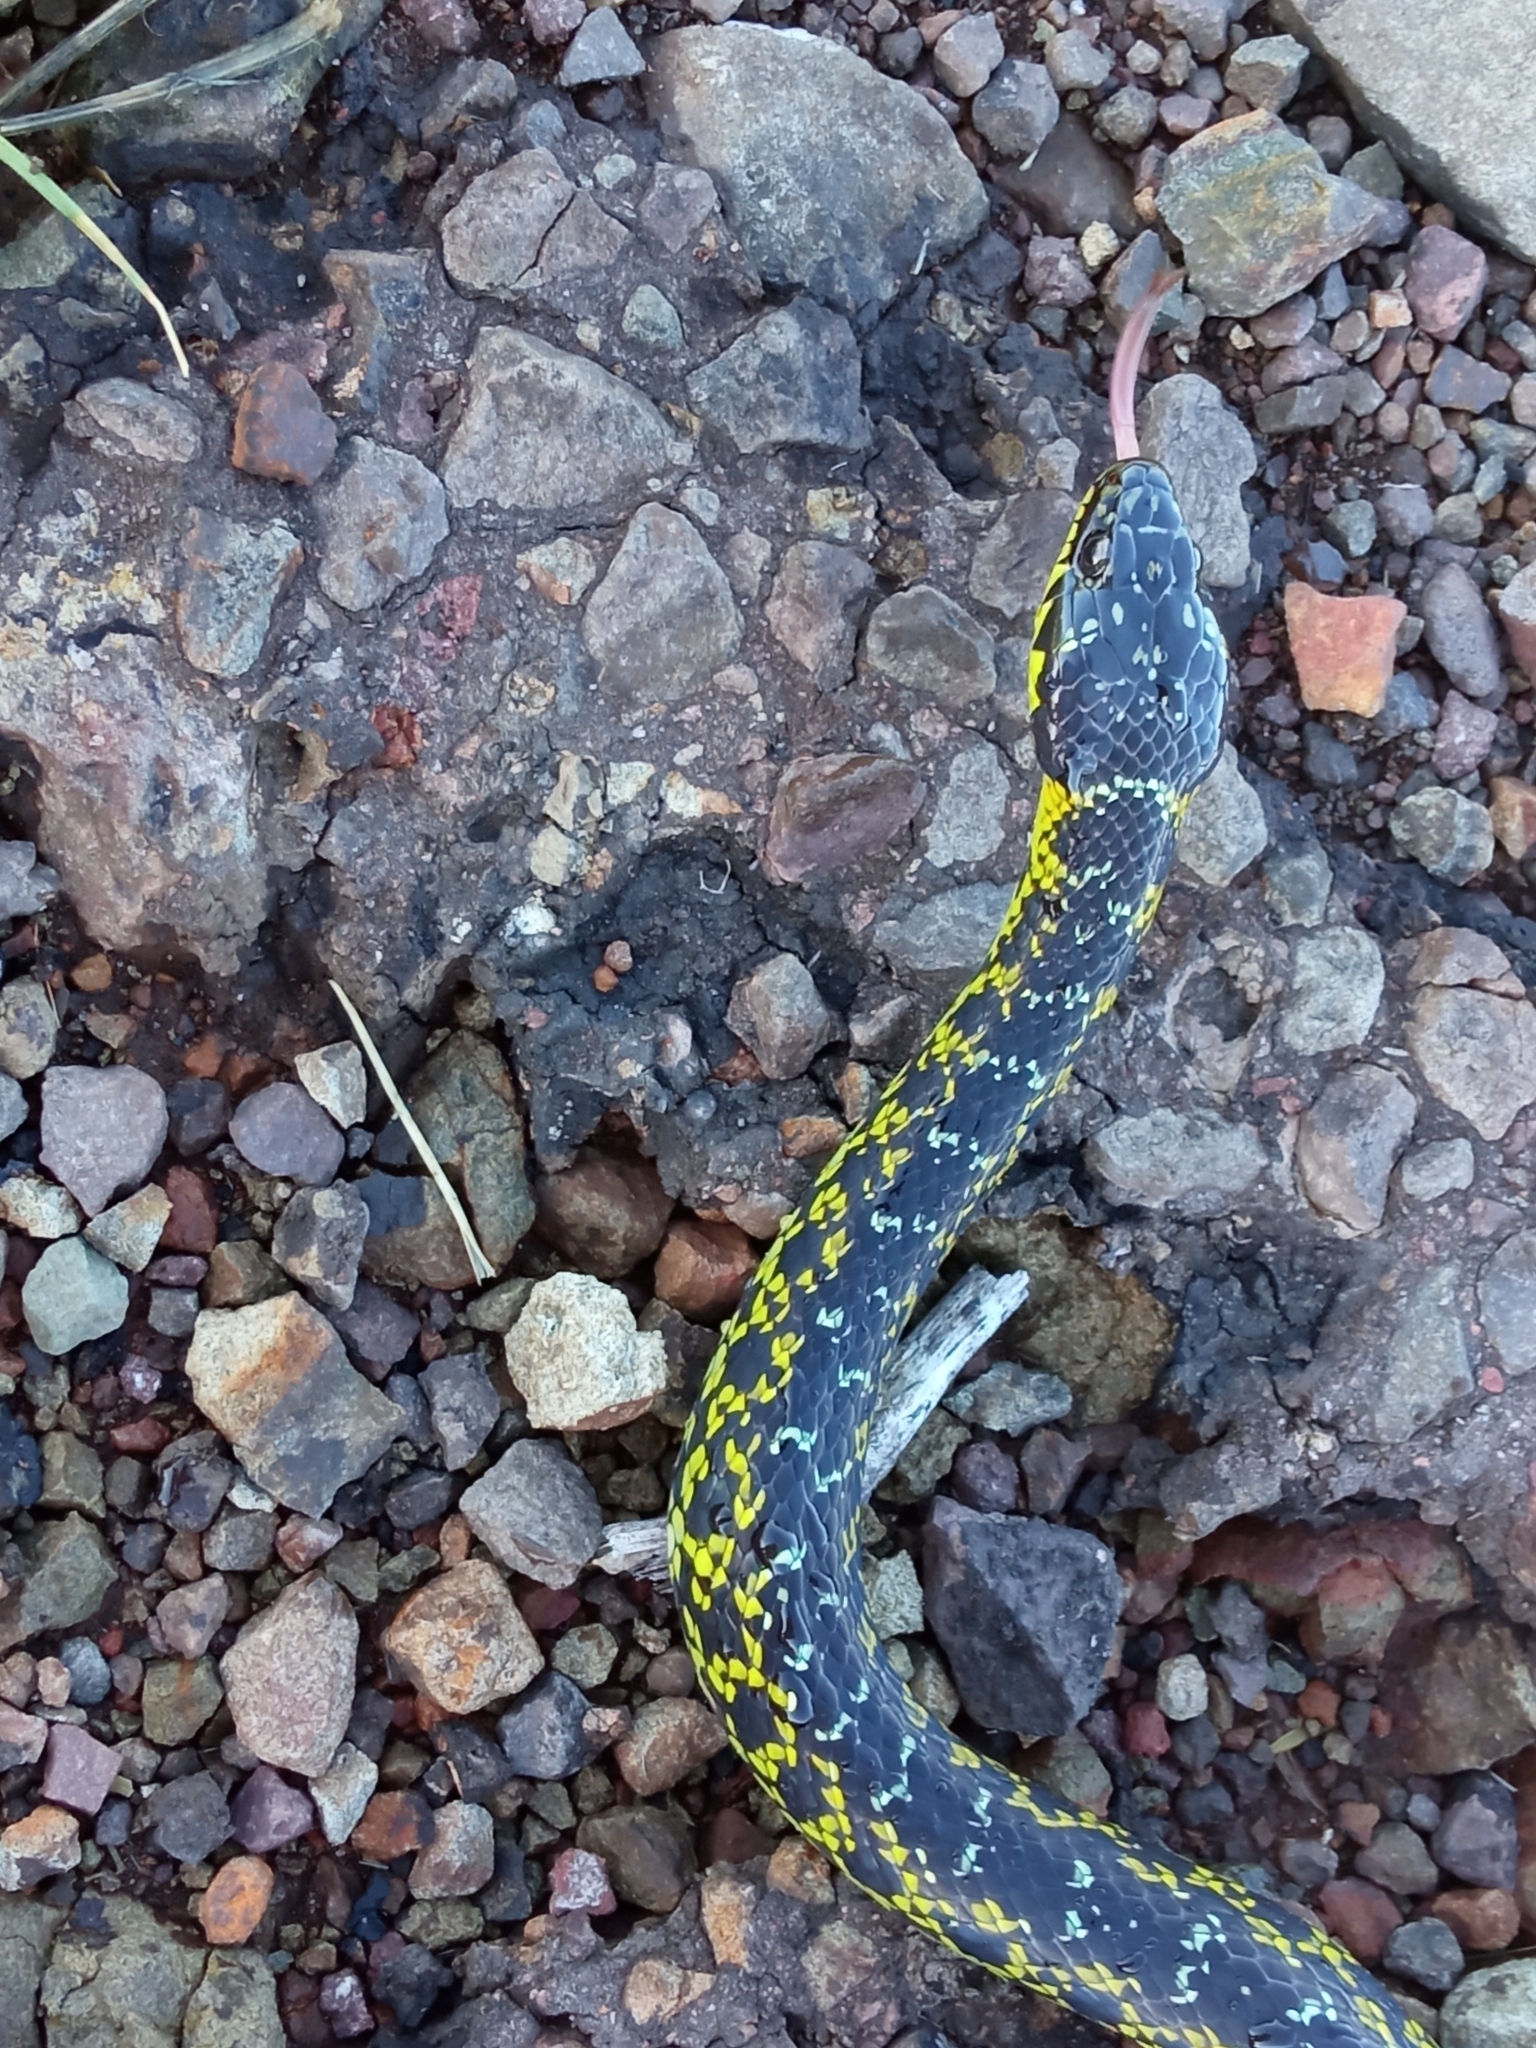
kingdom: Animalia
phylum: Chordata
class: Squamata
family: Colubridae
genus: Erythrolamprus
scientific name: Erythrolamprus poecilogyrus
